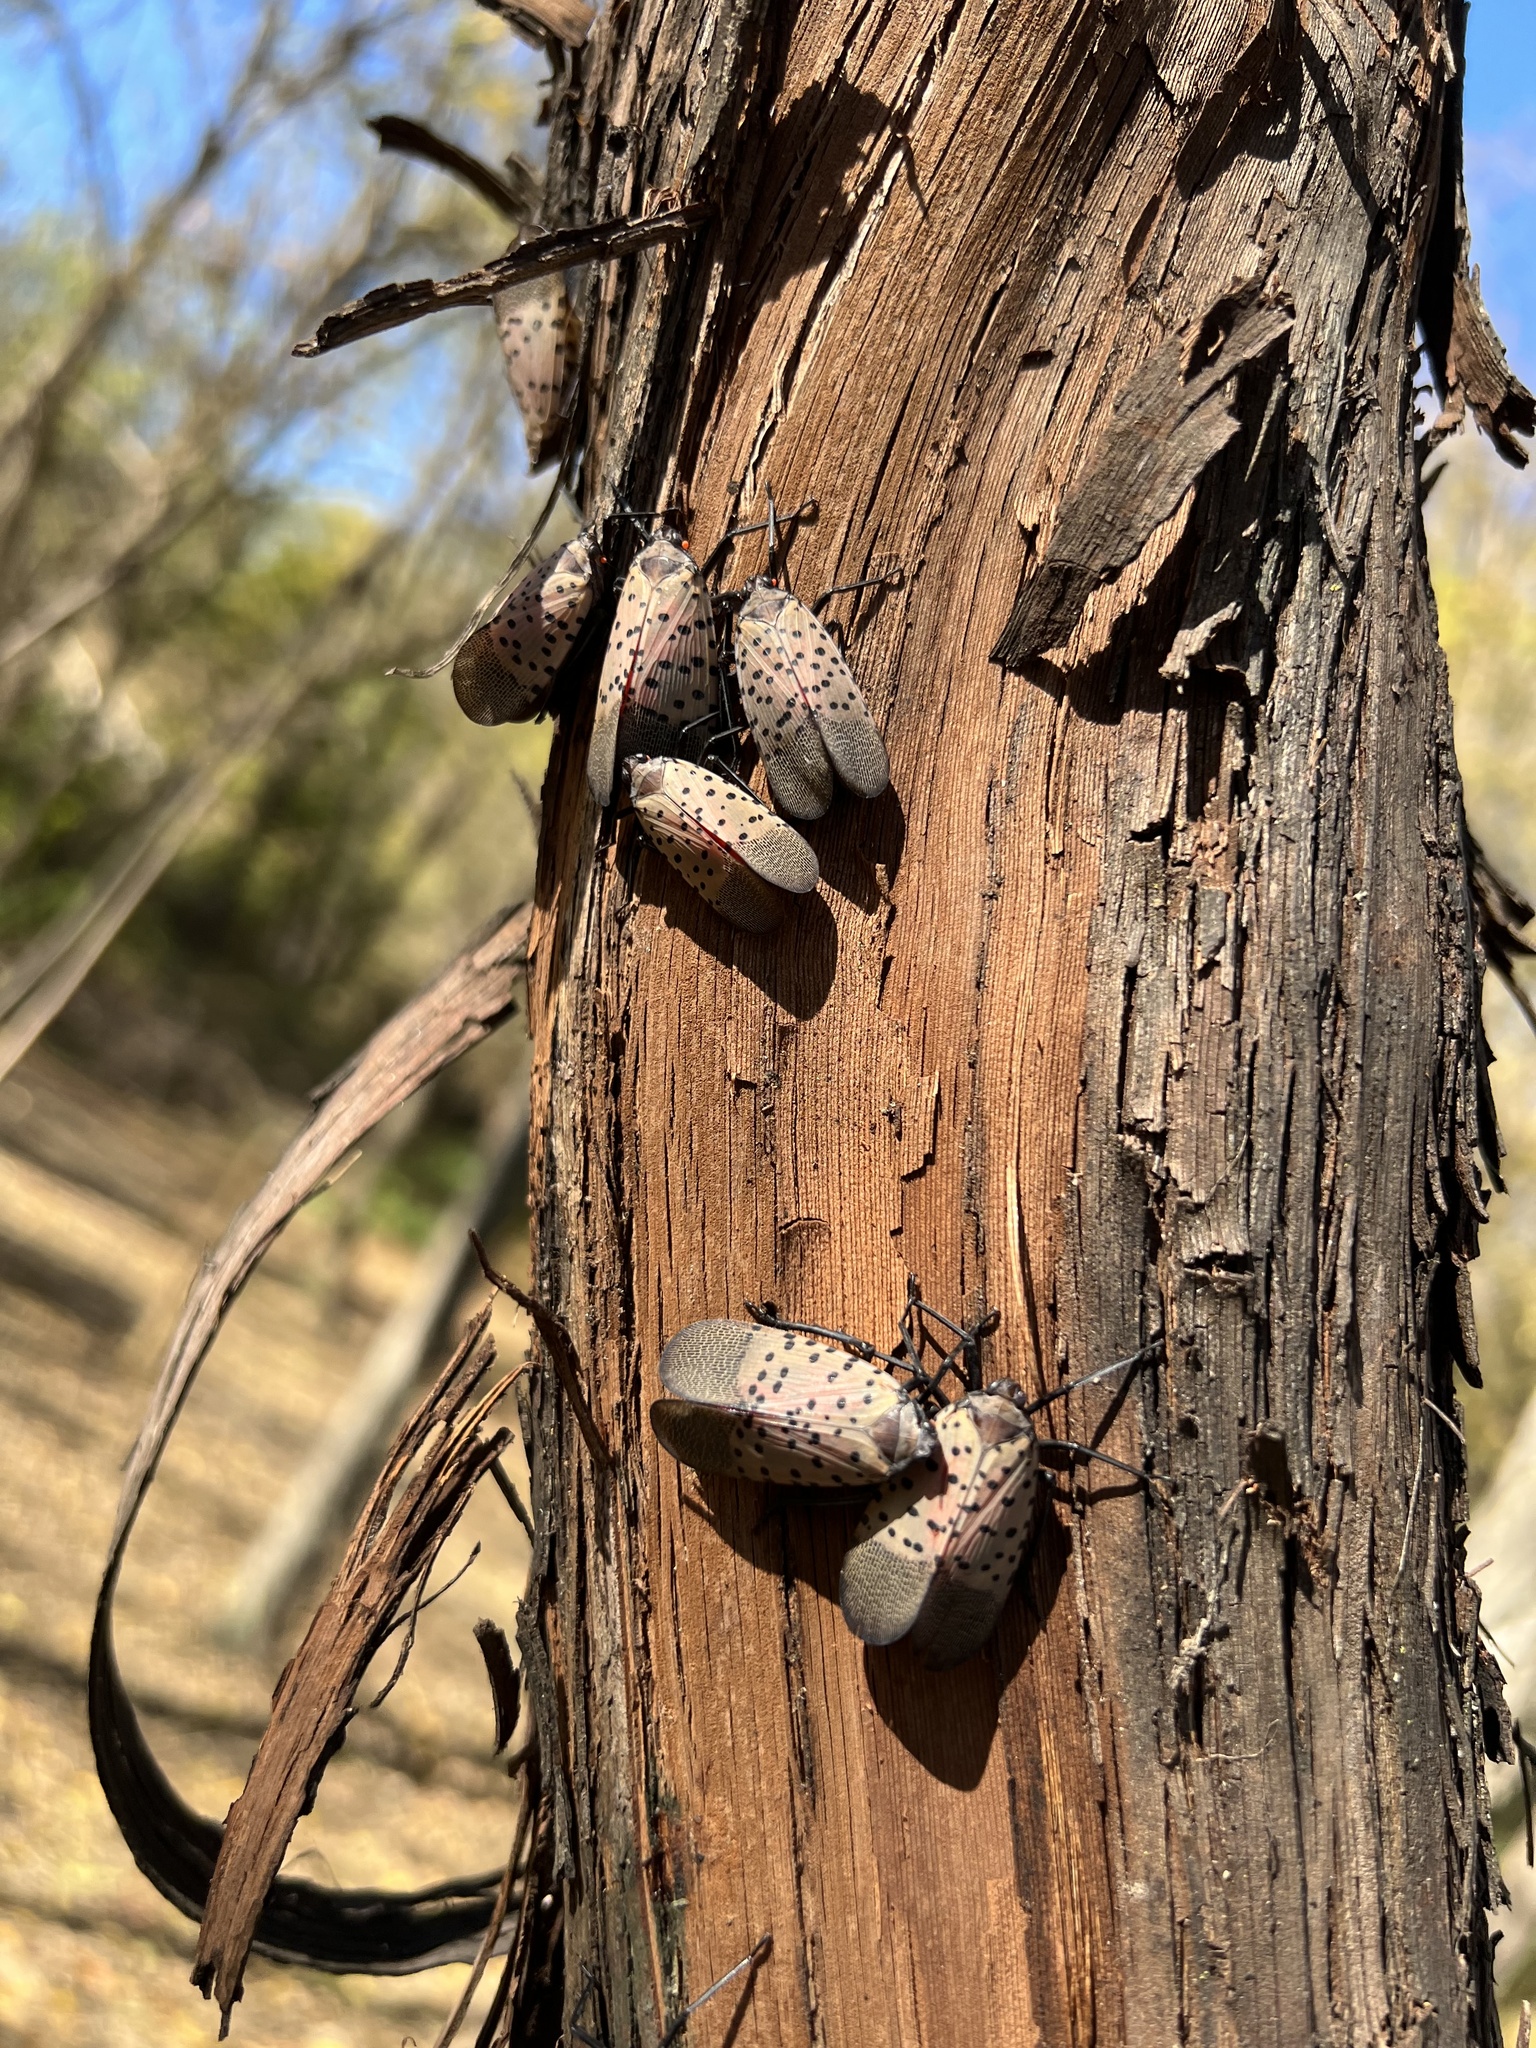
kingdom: Animalia
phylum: Arthropoda
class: Insecta
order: Hemiptera
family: Fulgoridae
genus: Lycorma
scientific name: Lycorma delicatula
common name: Spotted lanternfly
